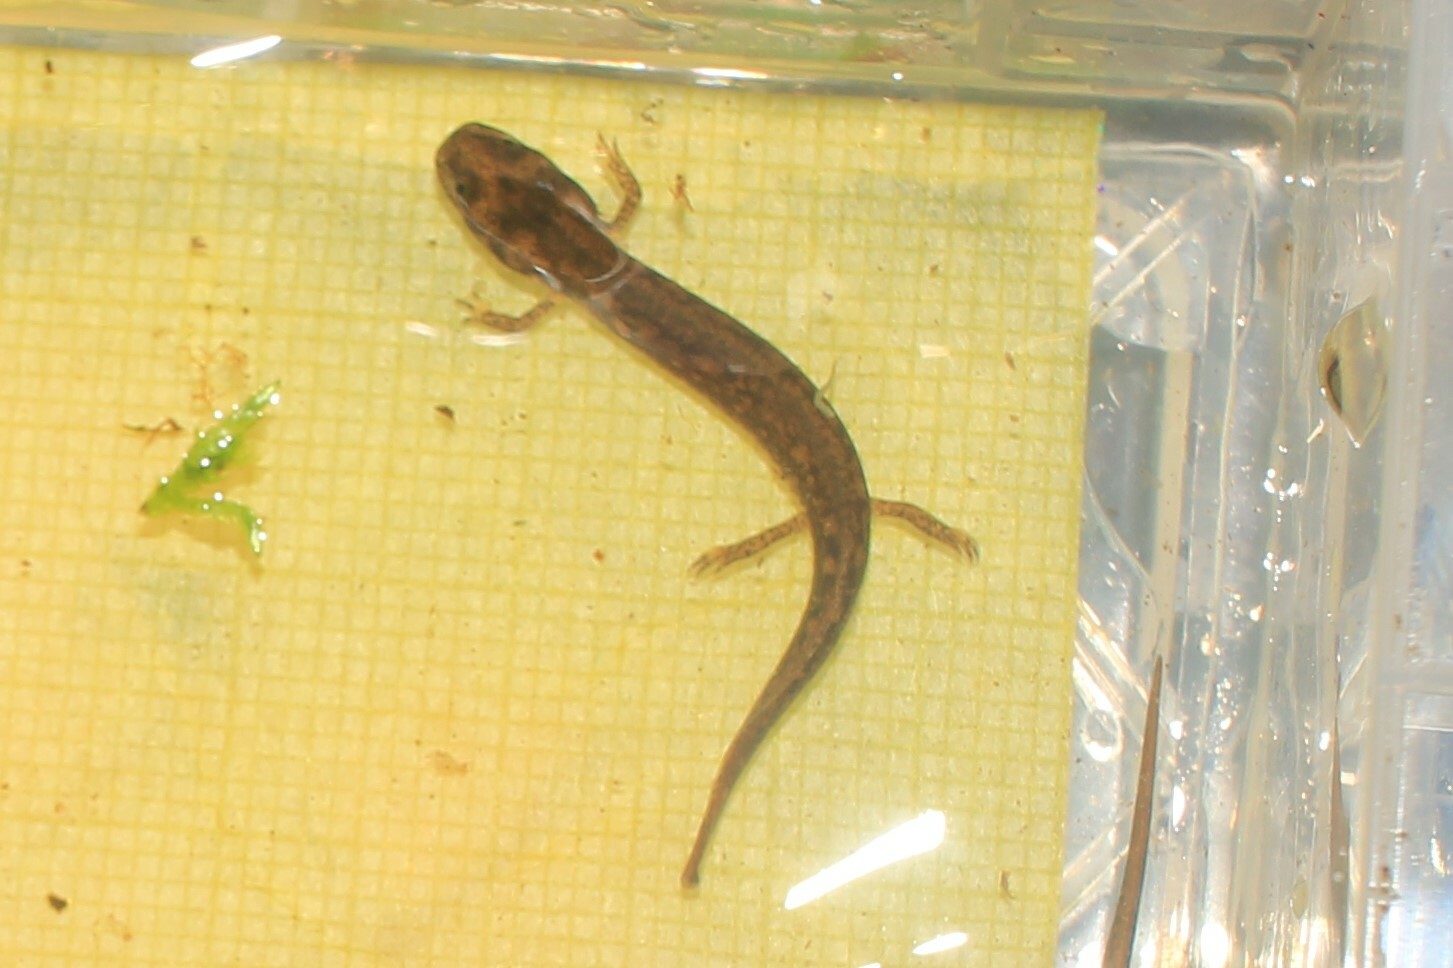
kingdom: Animalia
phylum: Chordata
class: Amphibia
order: Caudata
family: Plethodontidae
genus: Eurycea
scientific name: Eurycea bislineata
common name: Northern two-lined salamander
